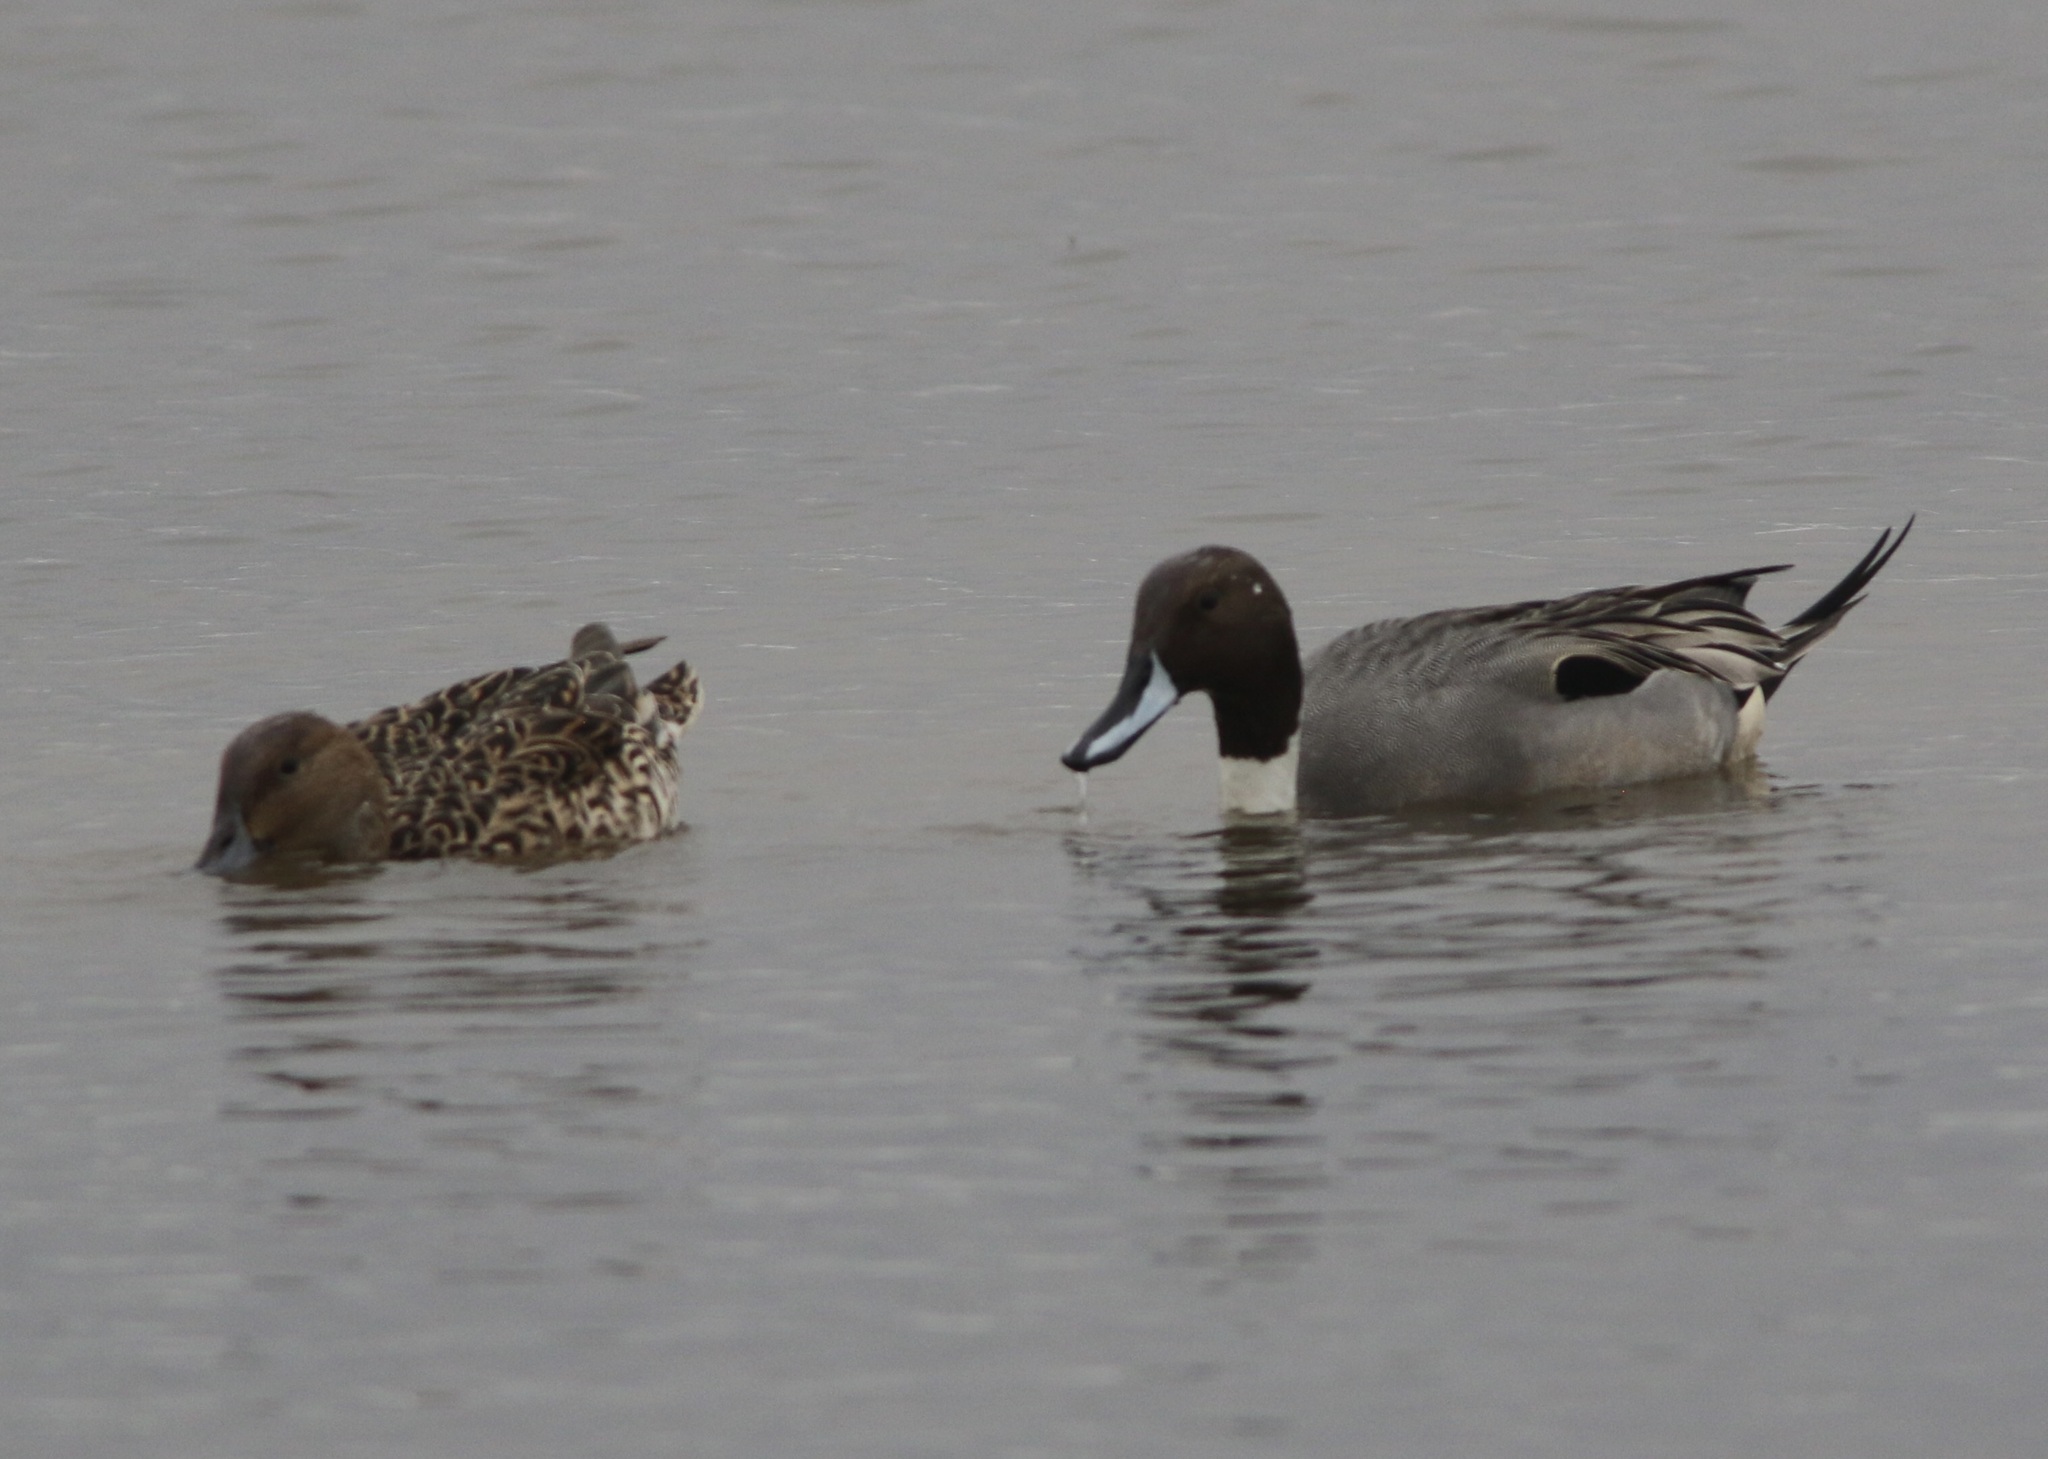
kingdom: Animalia
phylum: Chordata
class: Aves
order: Anseriformes
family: Anatidae
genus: Anas
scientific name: Anas acuta
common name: Northern pintail
